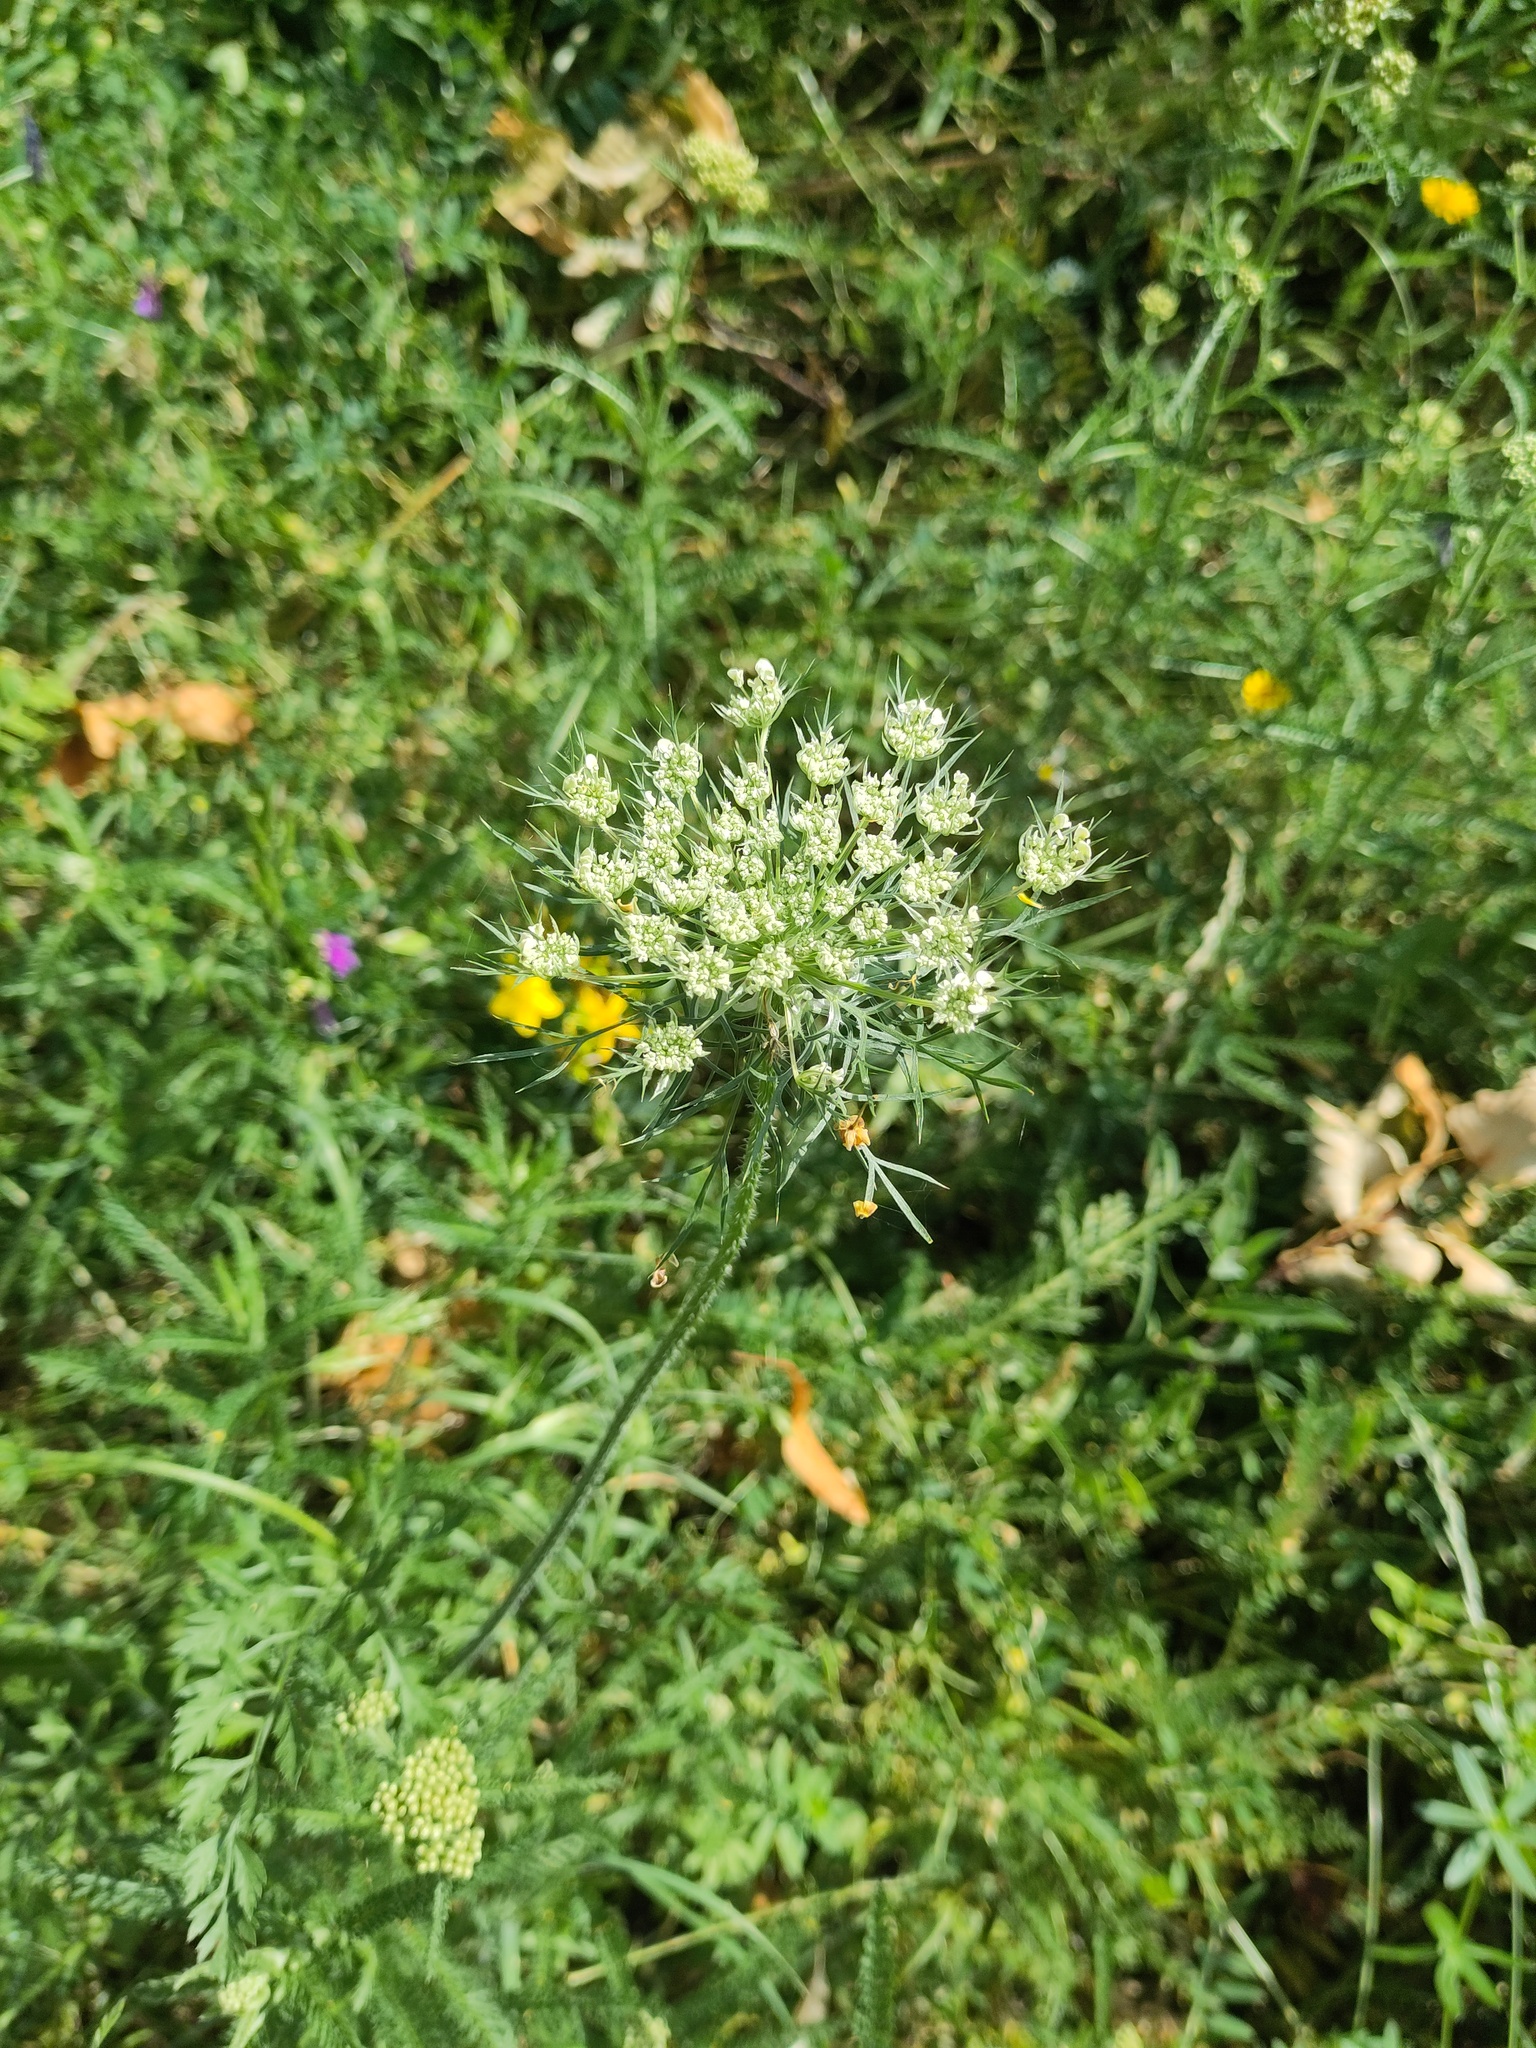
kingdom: Plantae
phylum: Tracheophyta
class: Magnoliopsida
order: Apiales
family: Apiaceae
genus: Daucus
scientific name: Daucus carota
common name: Wild carrot
